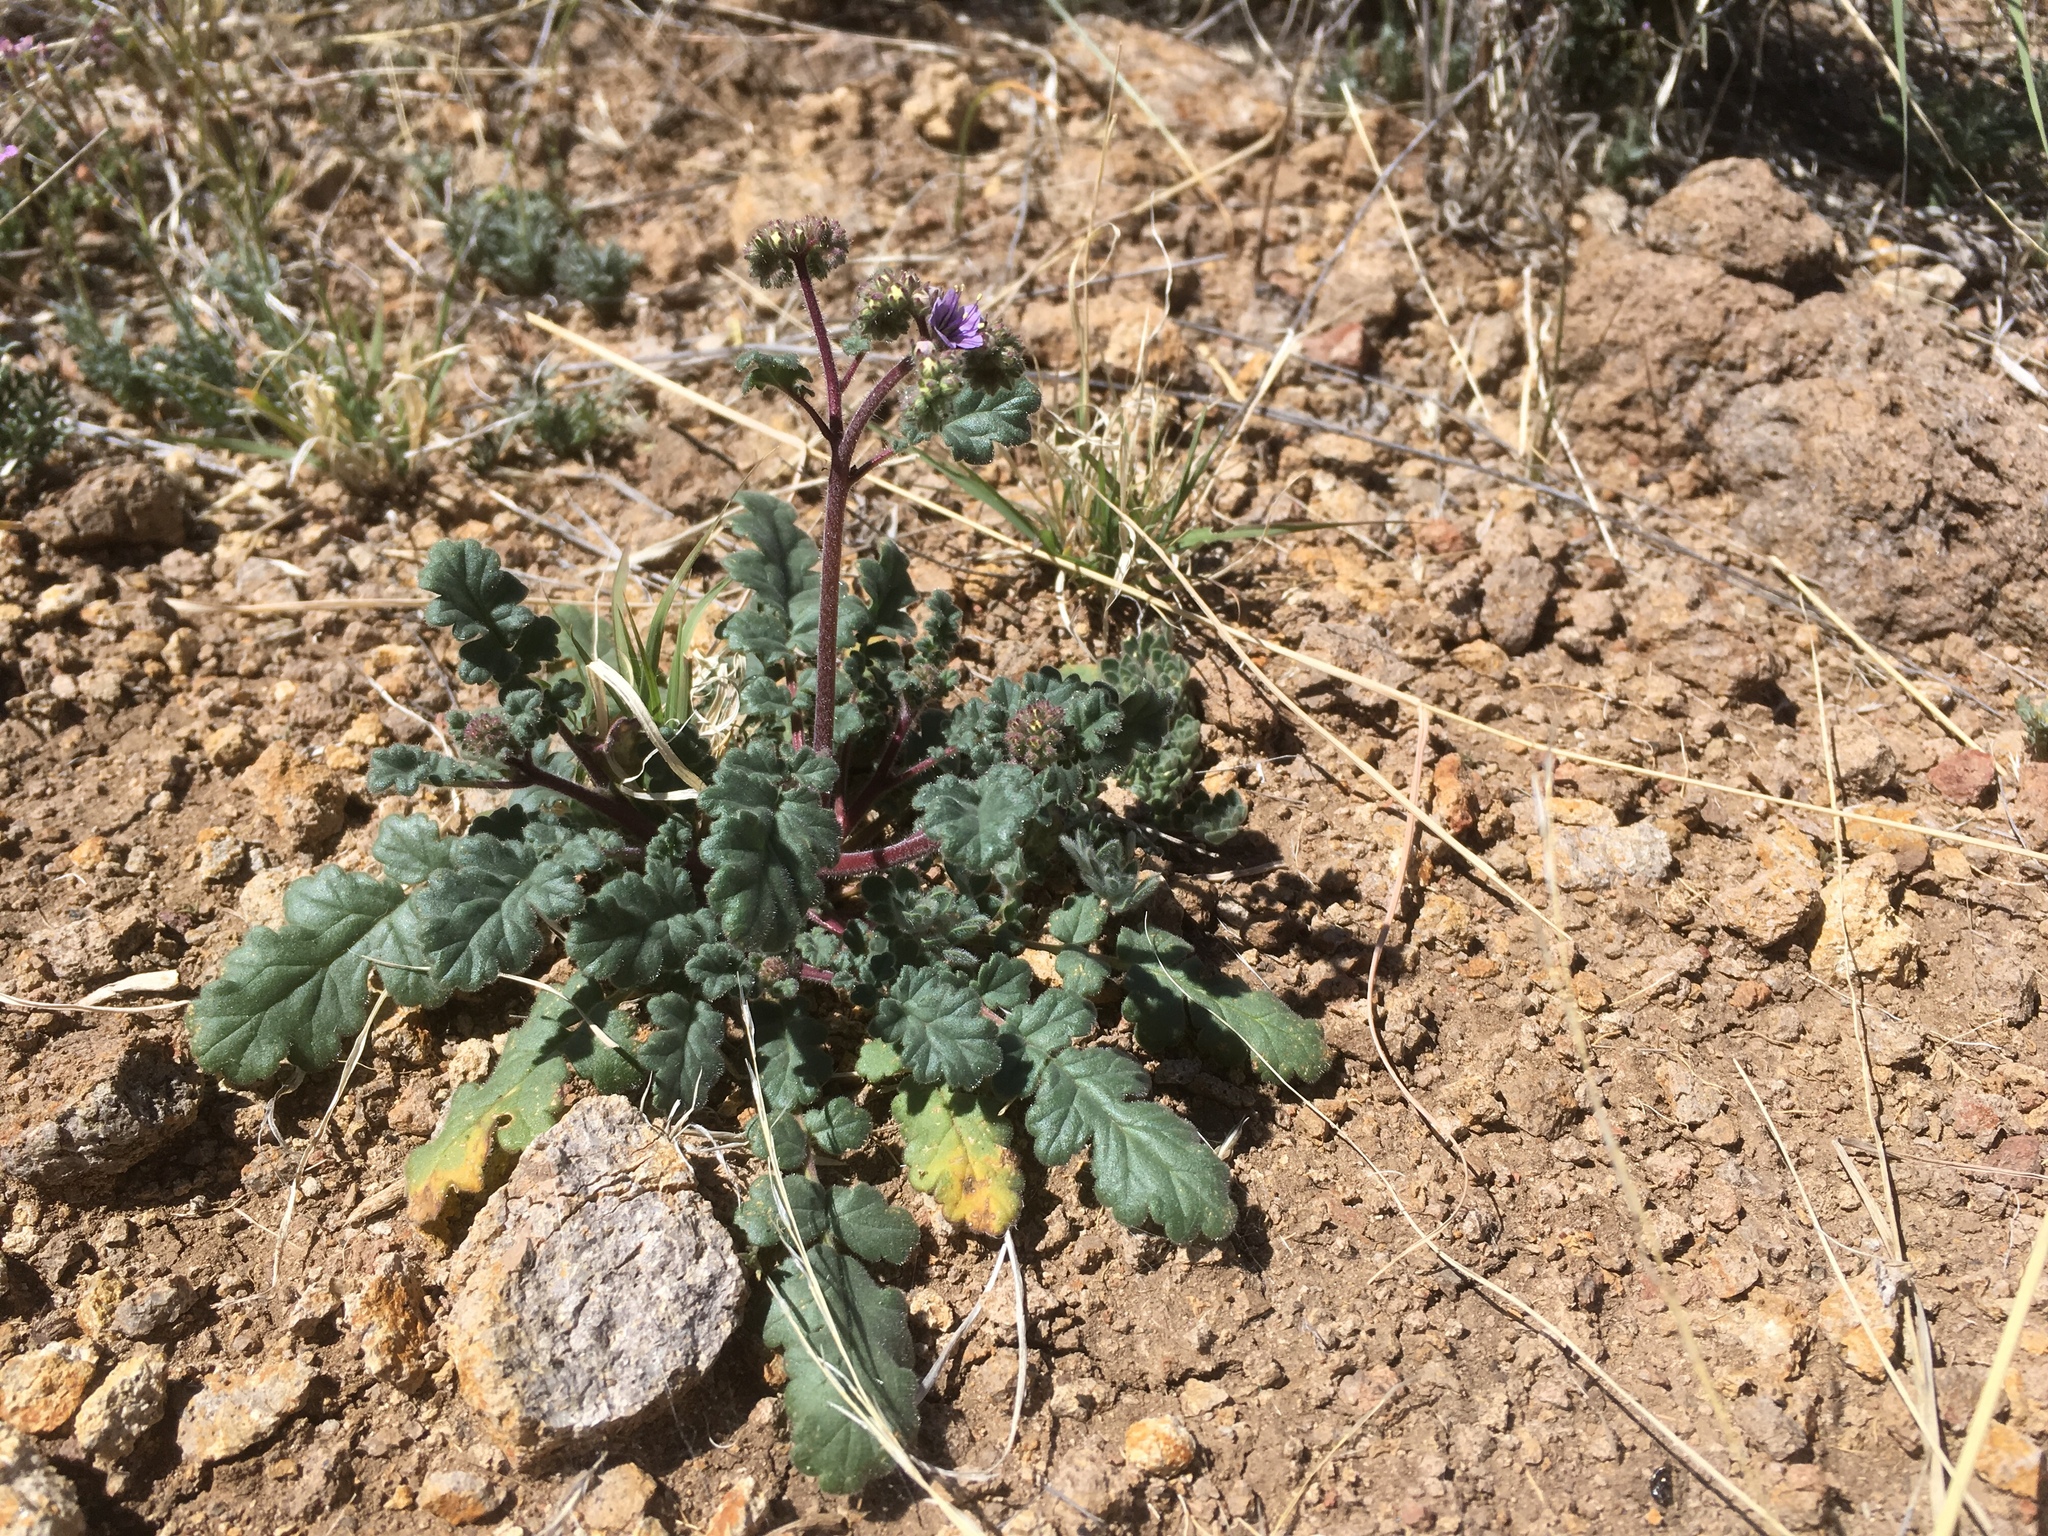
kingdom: Plantae
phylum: Tracheophyta
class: Magnoliopsida
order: Boraginales
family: Hydrophyllaceae
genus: Phacelia
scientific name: Phacelia coerulea
